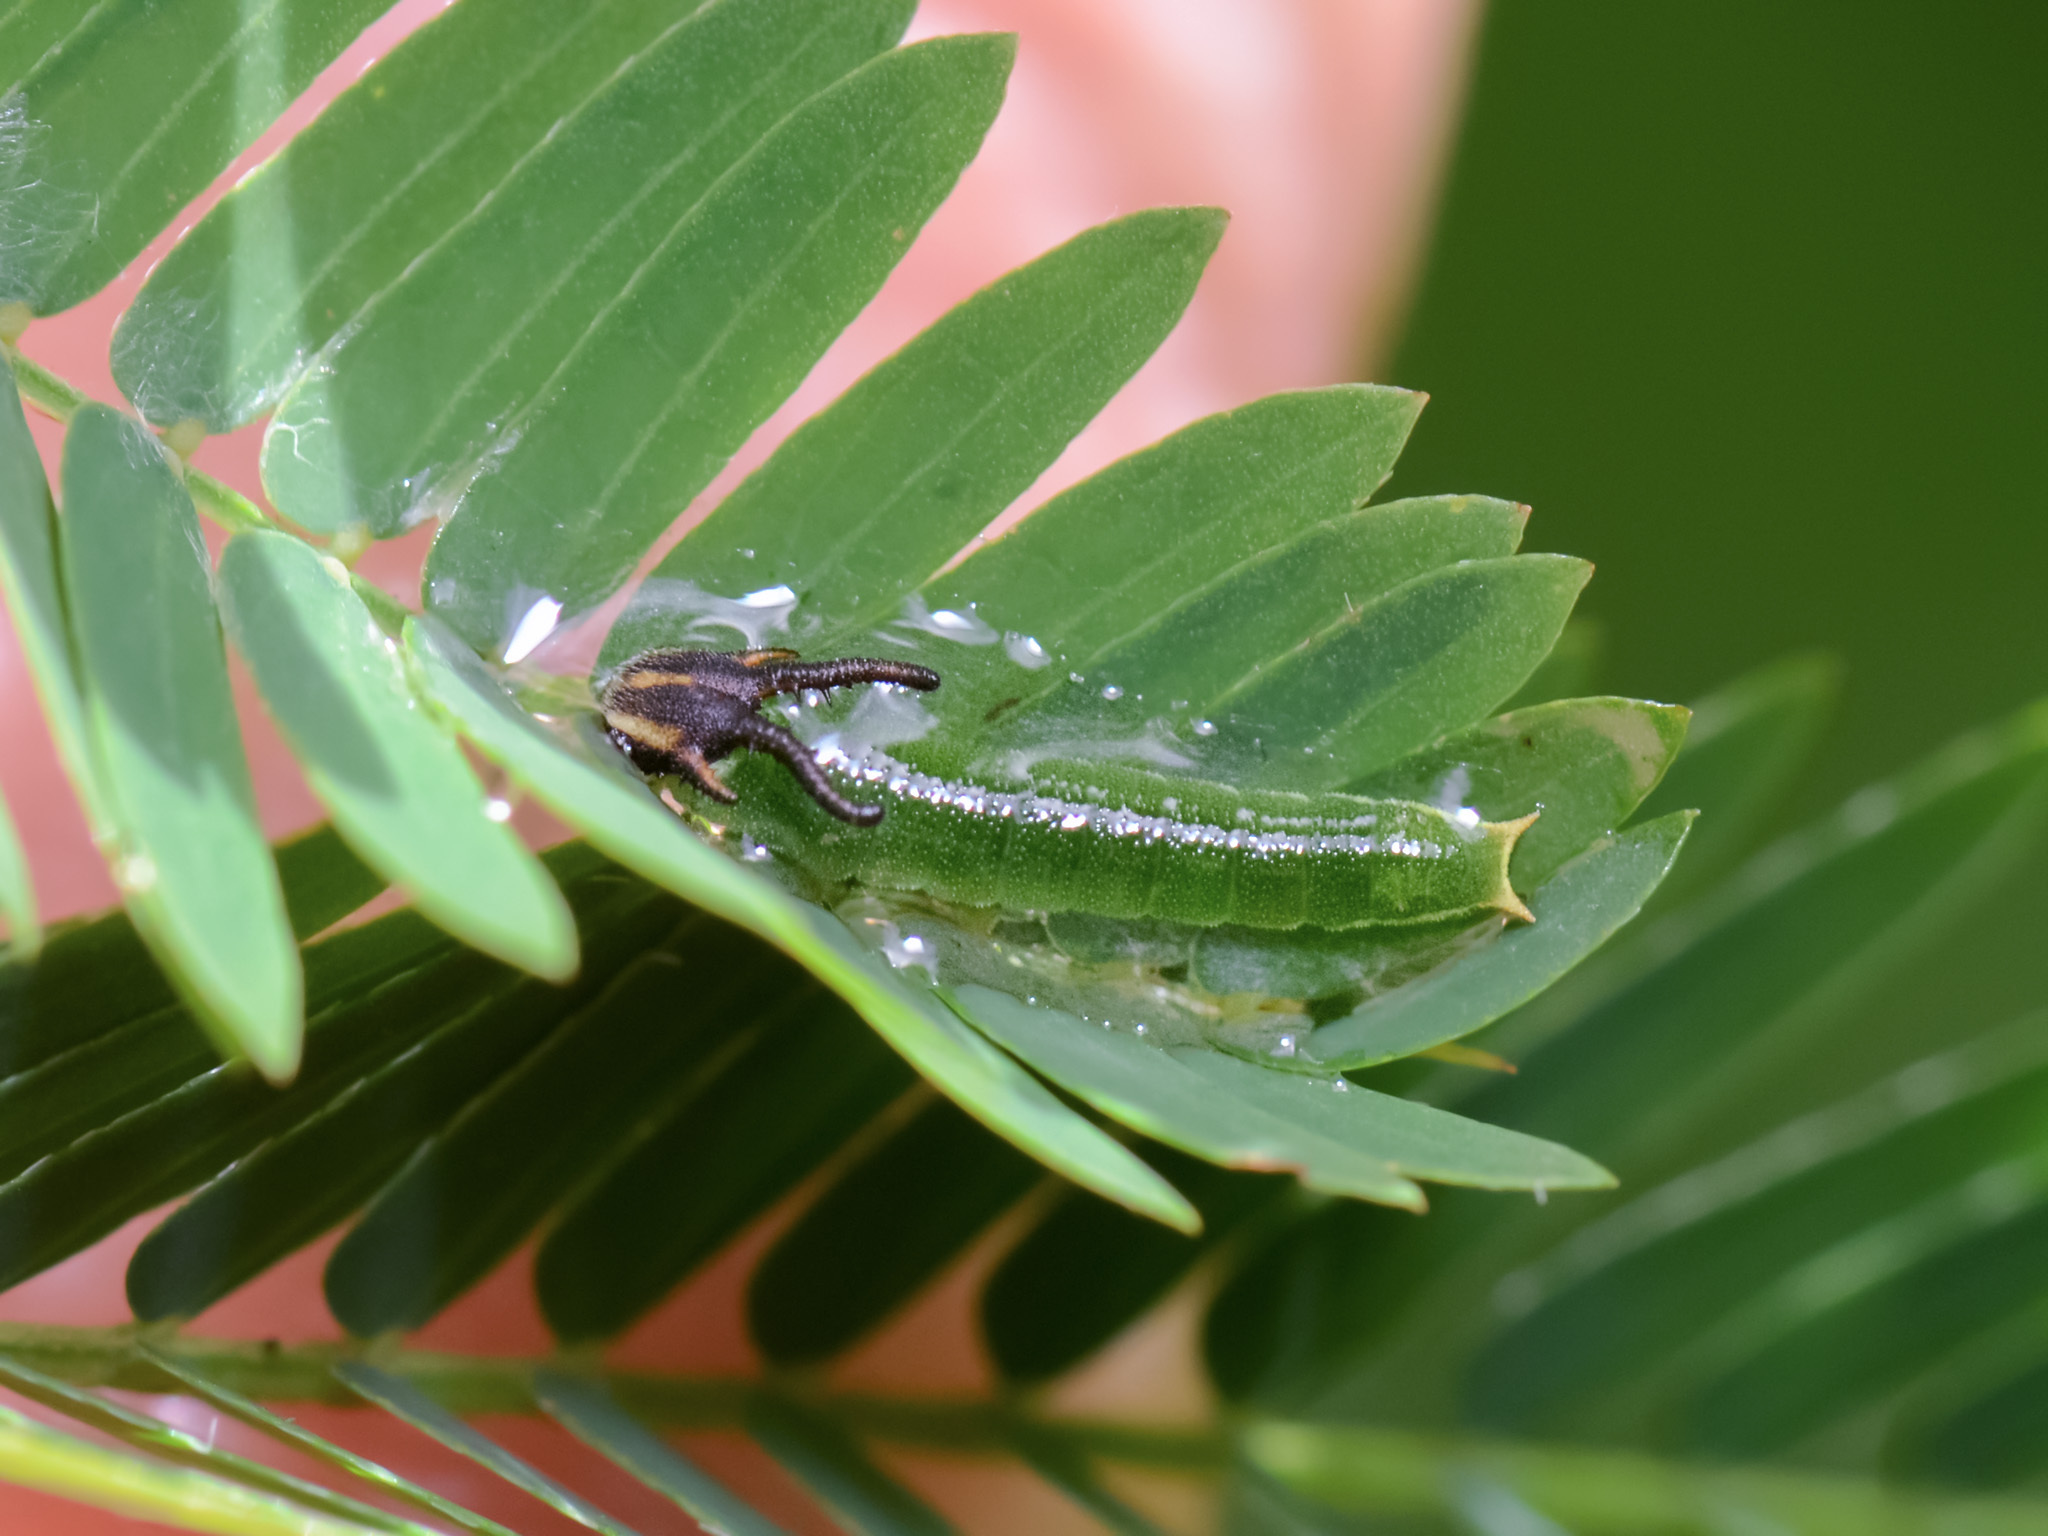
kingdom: Animalia
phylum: Arthropoda
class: Insecta
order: Lepidoptera
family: Nymphalidae
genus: Polyura
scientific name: Polyura athamas
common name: Common nawab
